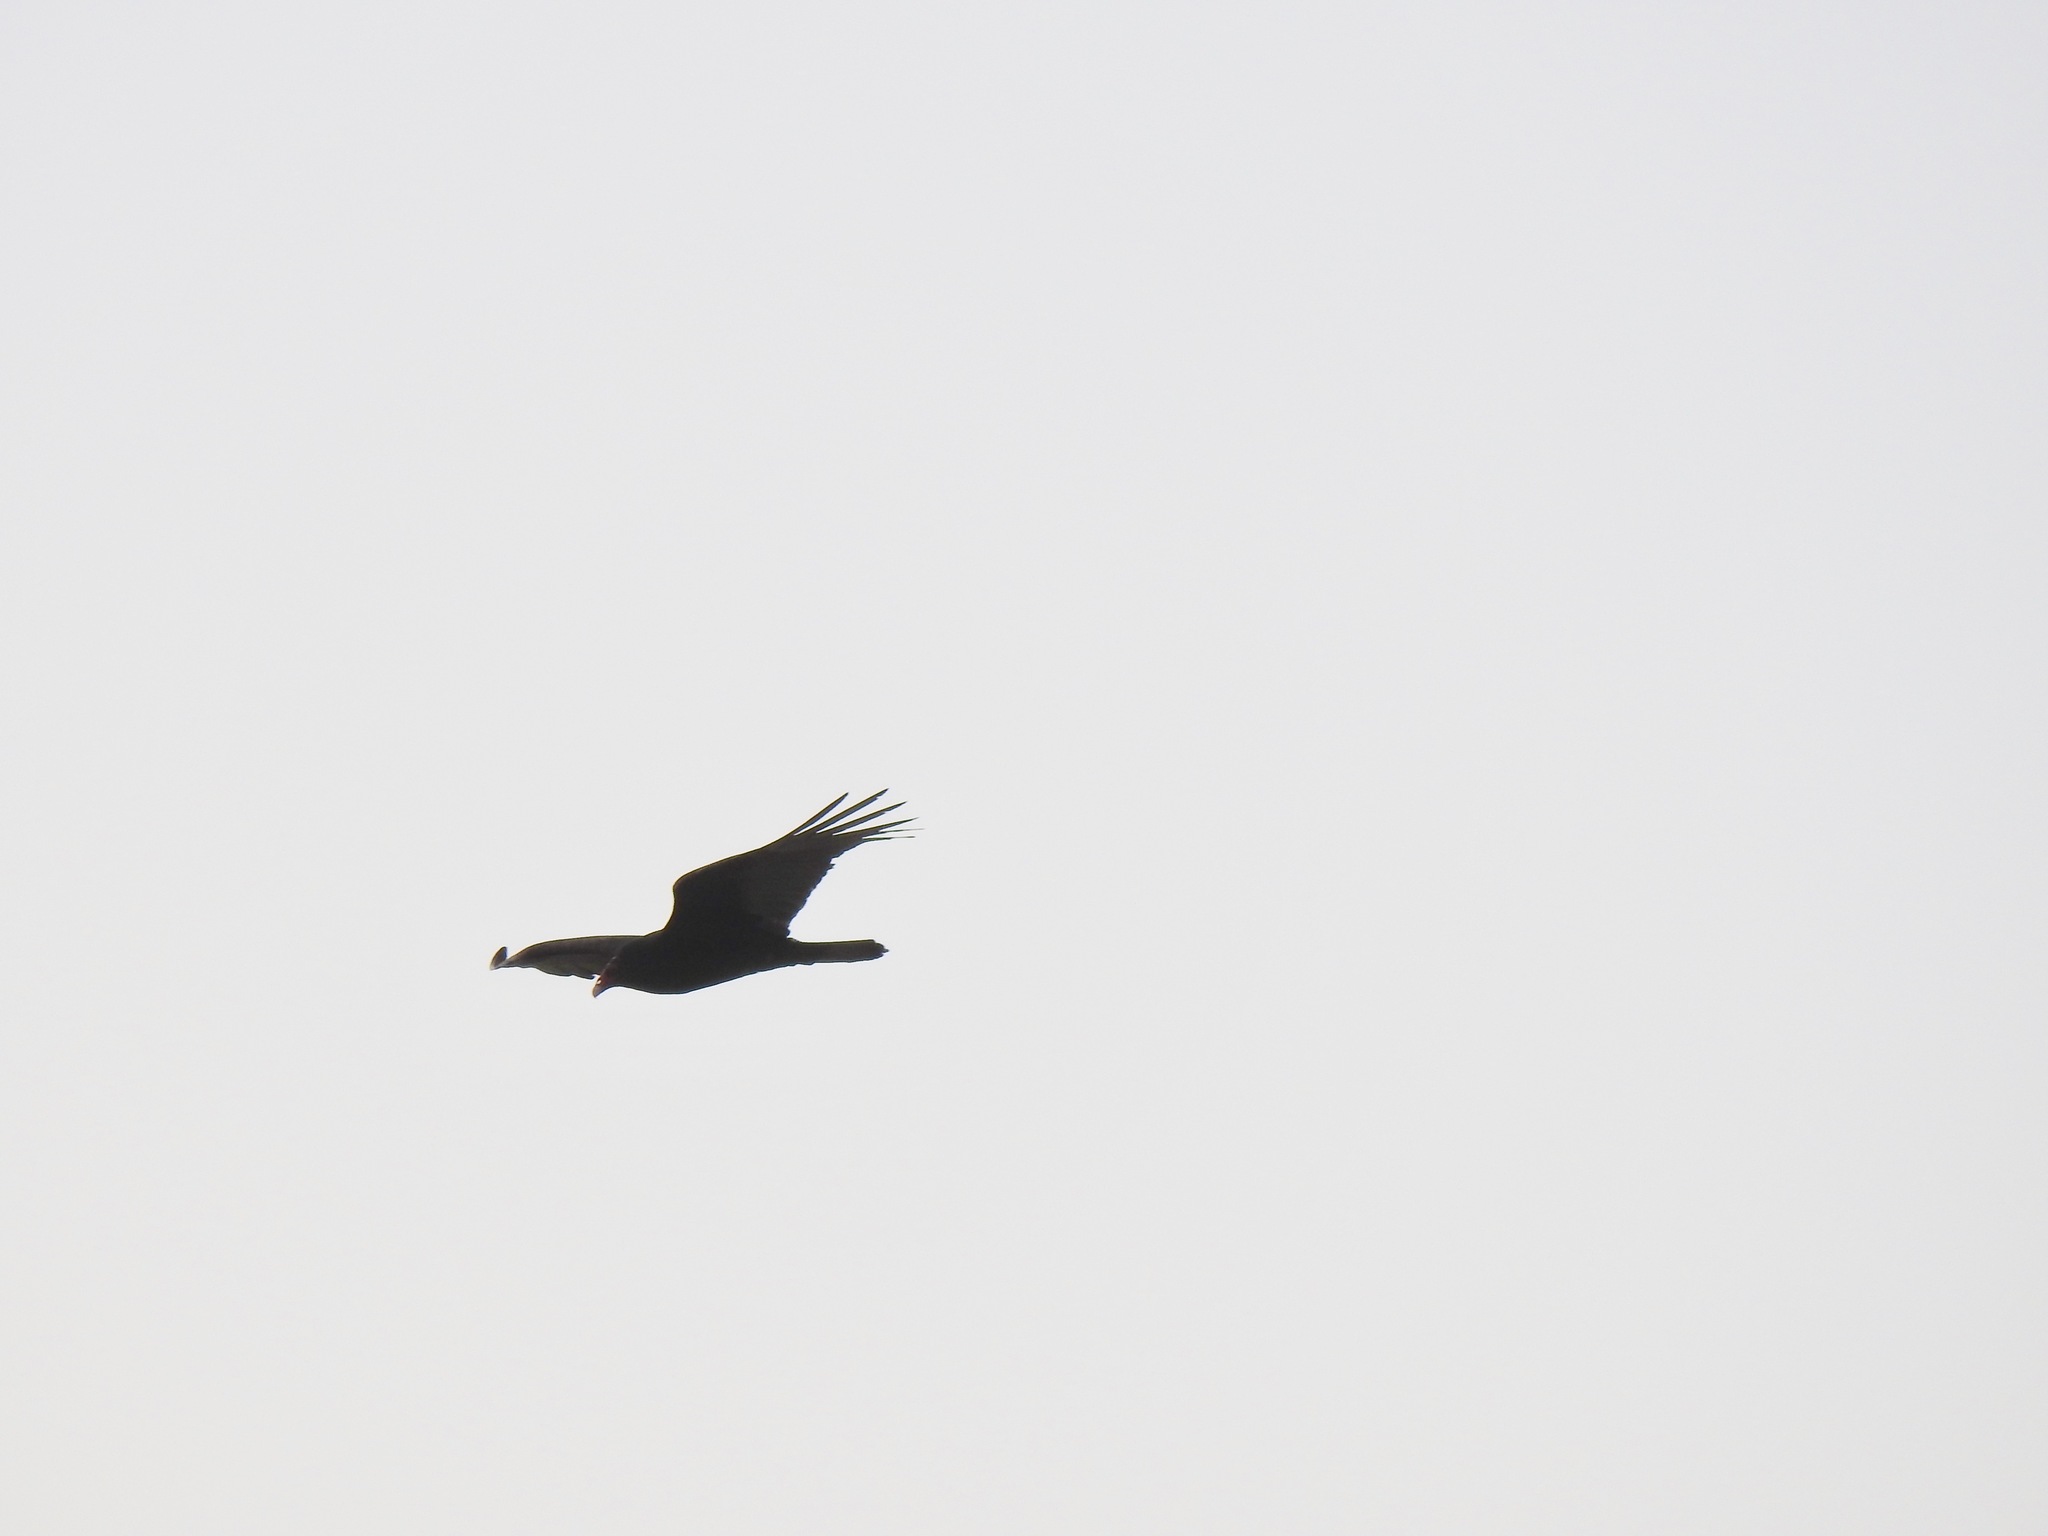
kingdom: Animalia
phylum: Chordata
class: Aves
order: Accipitriformes
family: Cathartidae
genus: Cathartes
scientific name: Cathartes aura
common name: Turkey vulture
